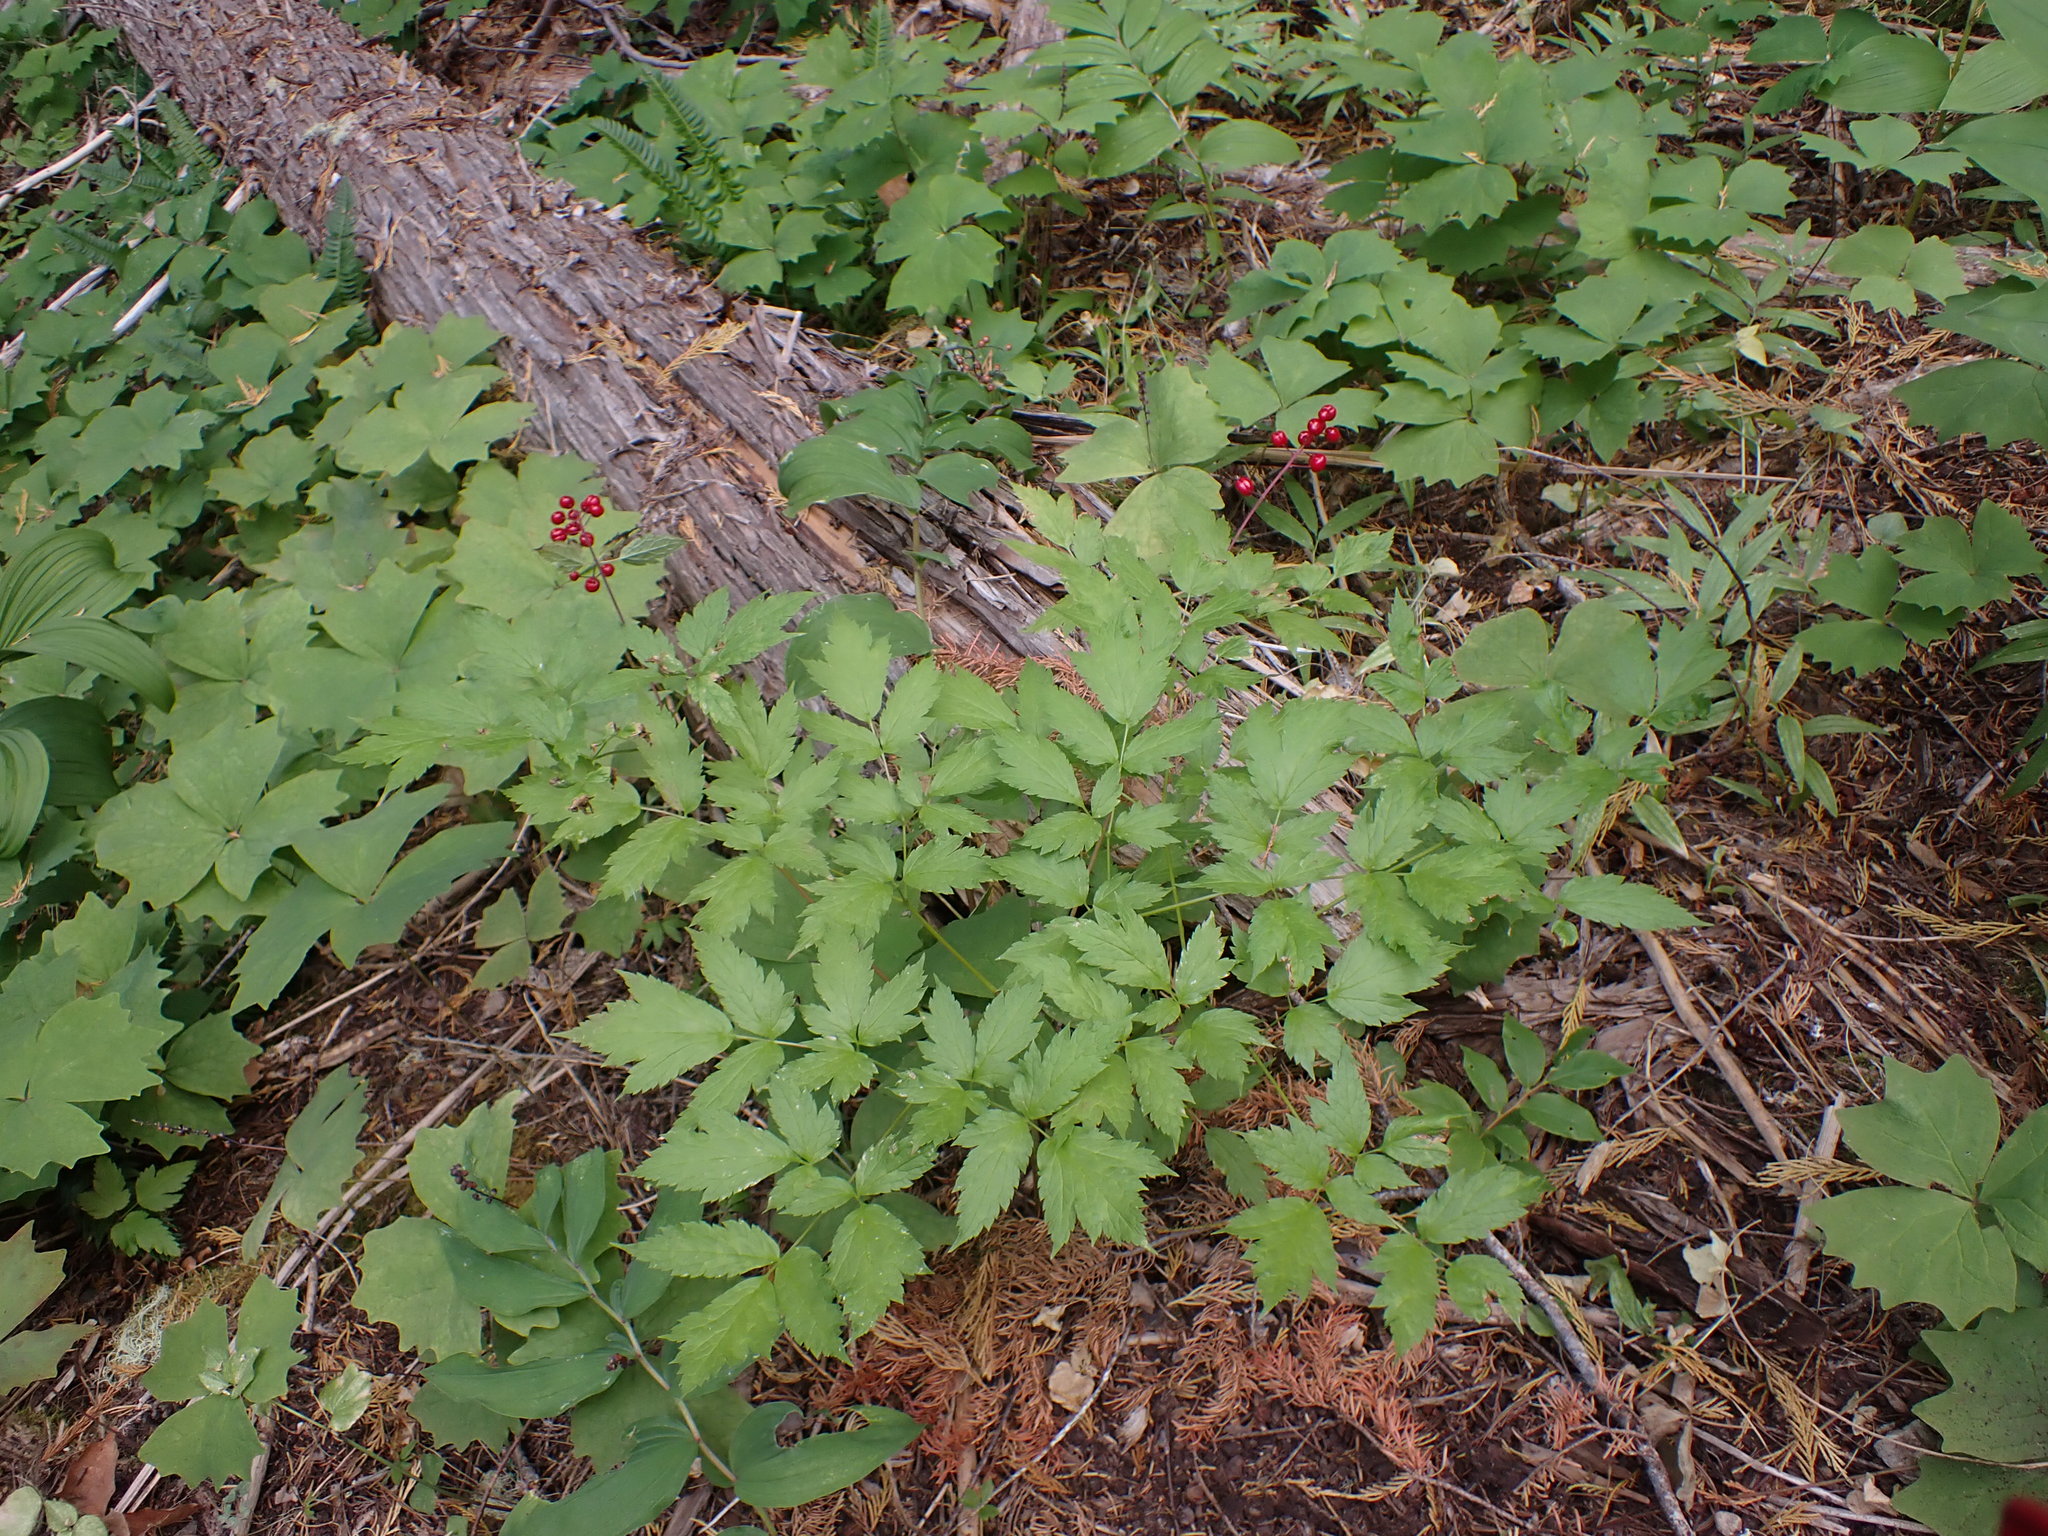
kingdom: Plantae
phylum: Tracheophyta
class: Magnoliopsida
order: Ranunculales
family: Ranunculaceae
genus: Actaea
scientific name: Actaea rubra
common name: Red baneberry
